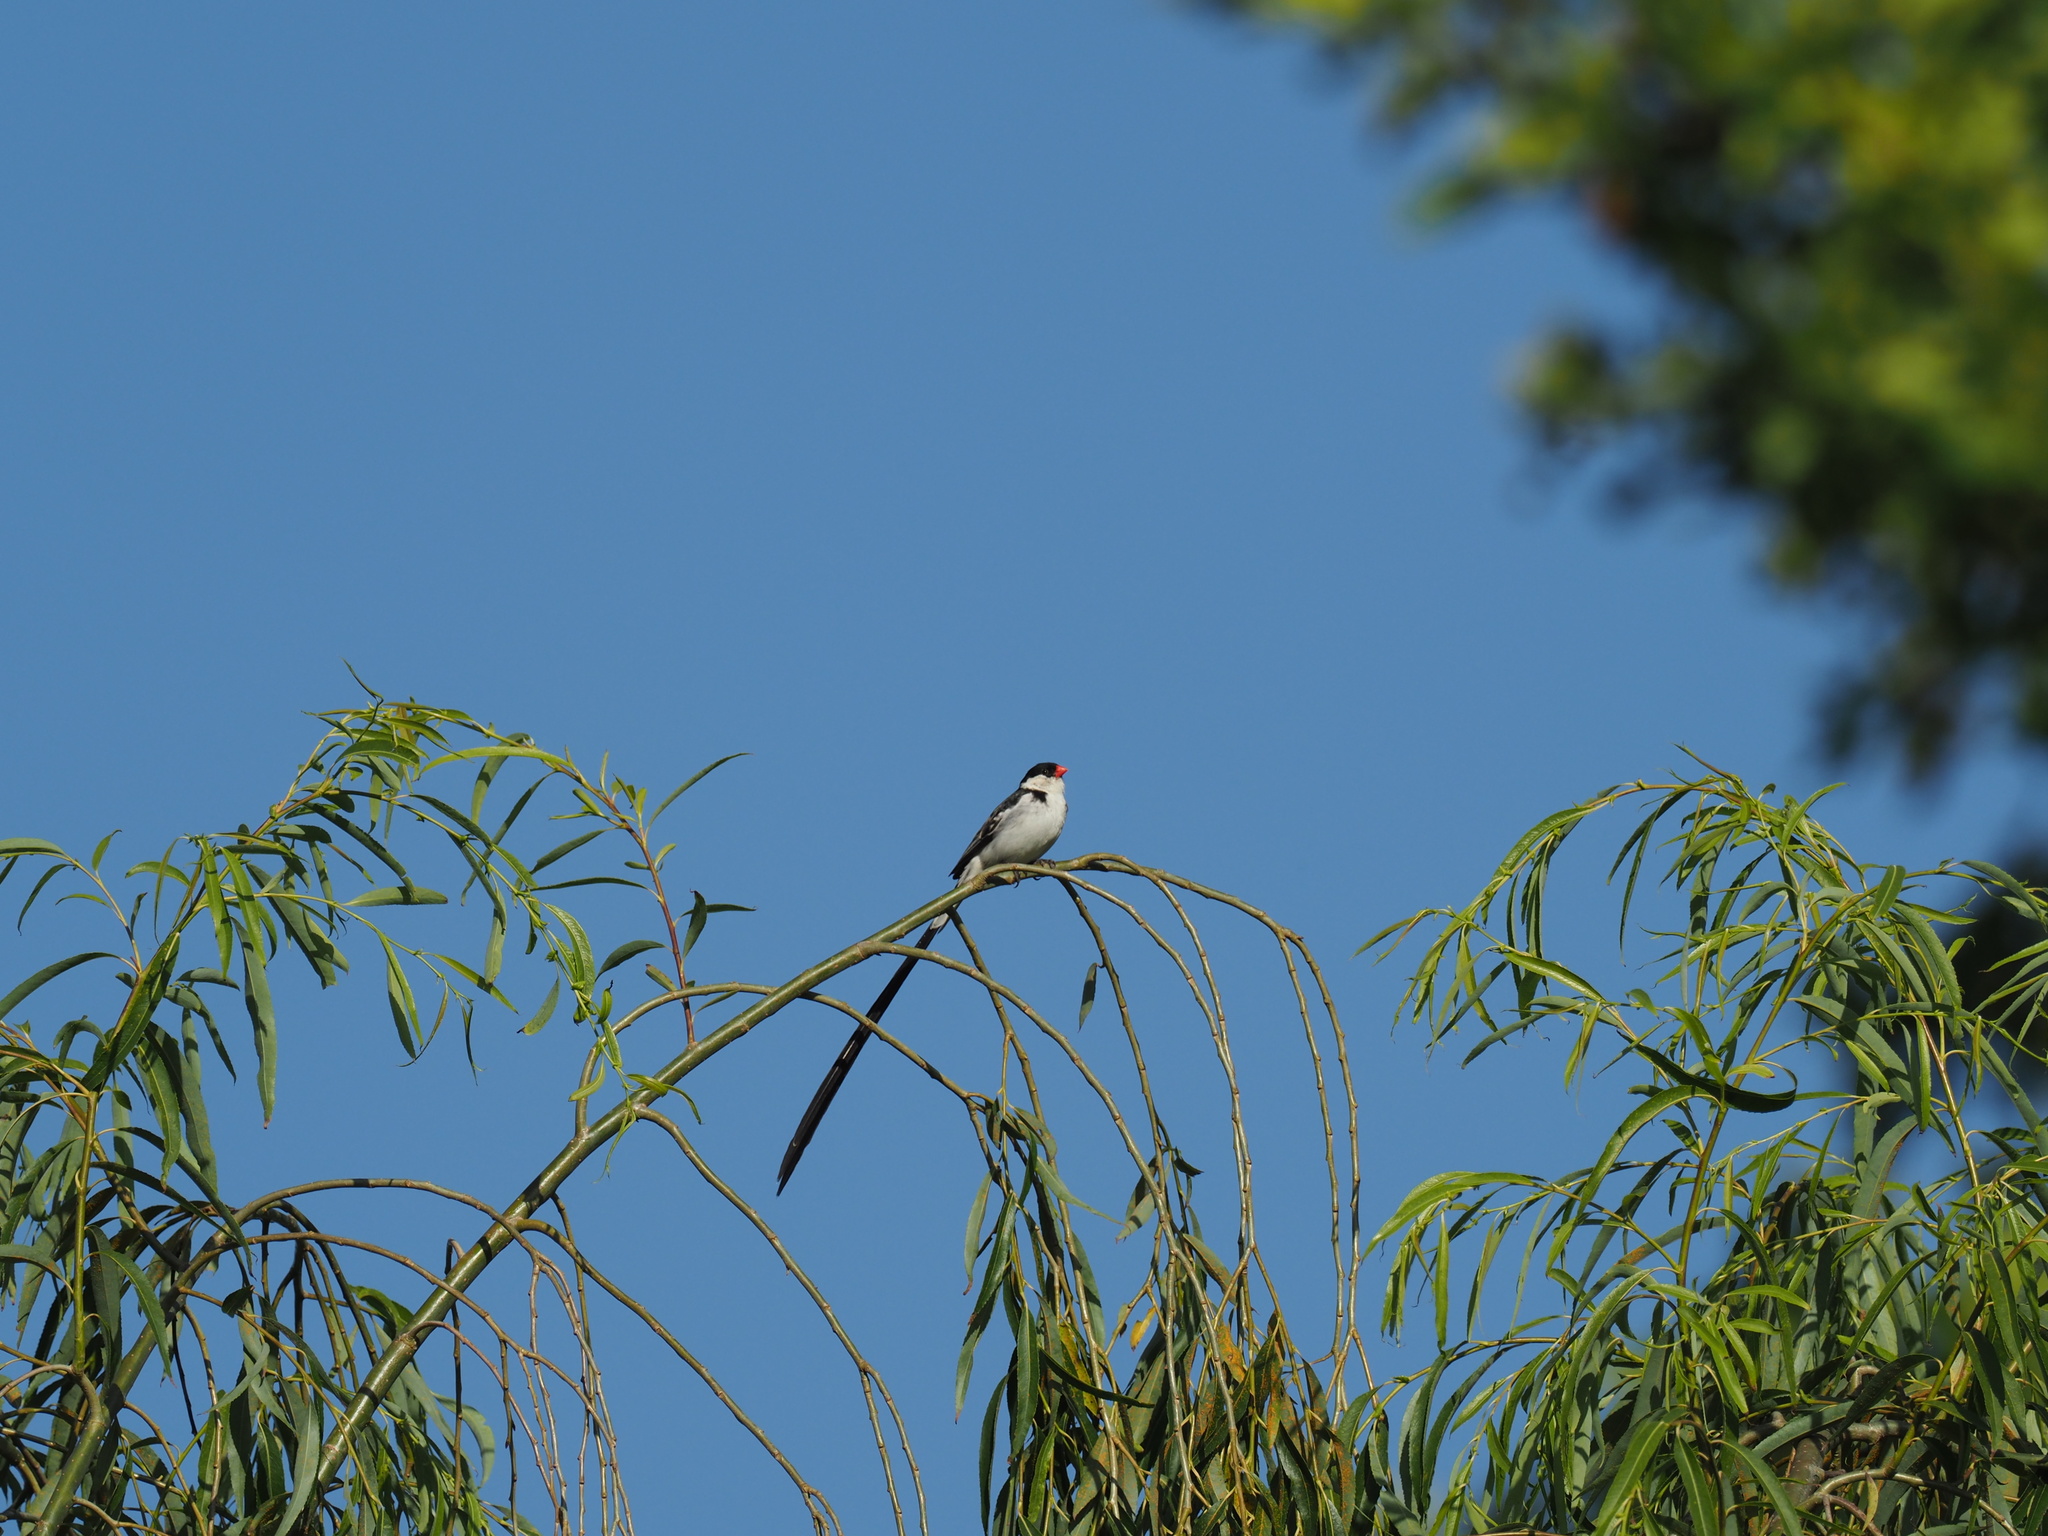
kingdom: Animalia
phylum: Chordata
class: Aves
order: Passeriformes
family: Viduidae
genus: Vidua
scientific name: Vidua macroura
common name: Pin-tailed whydah
